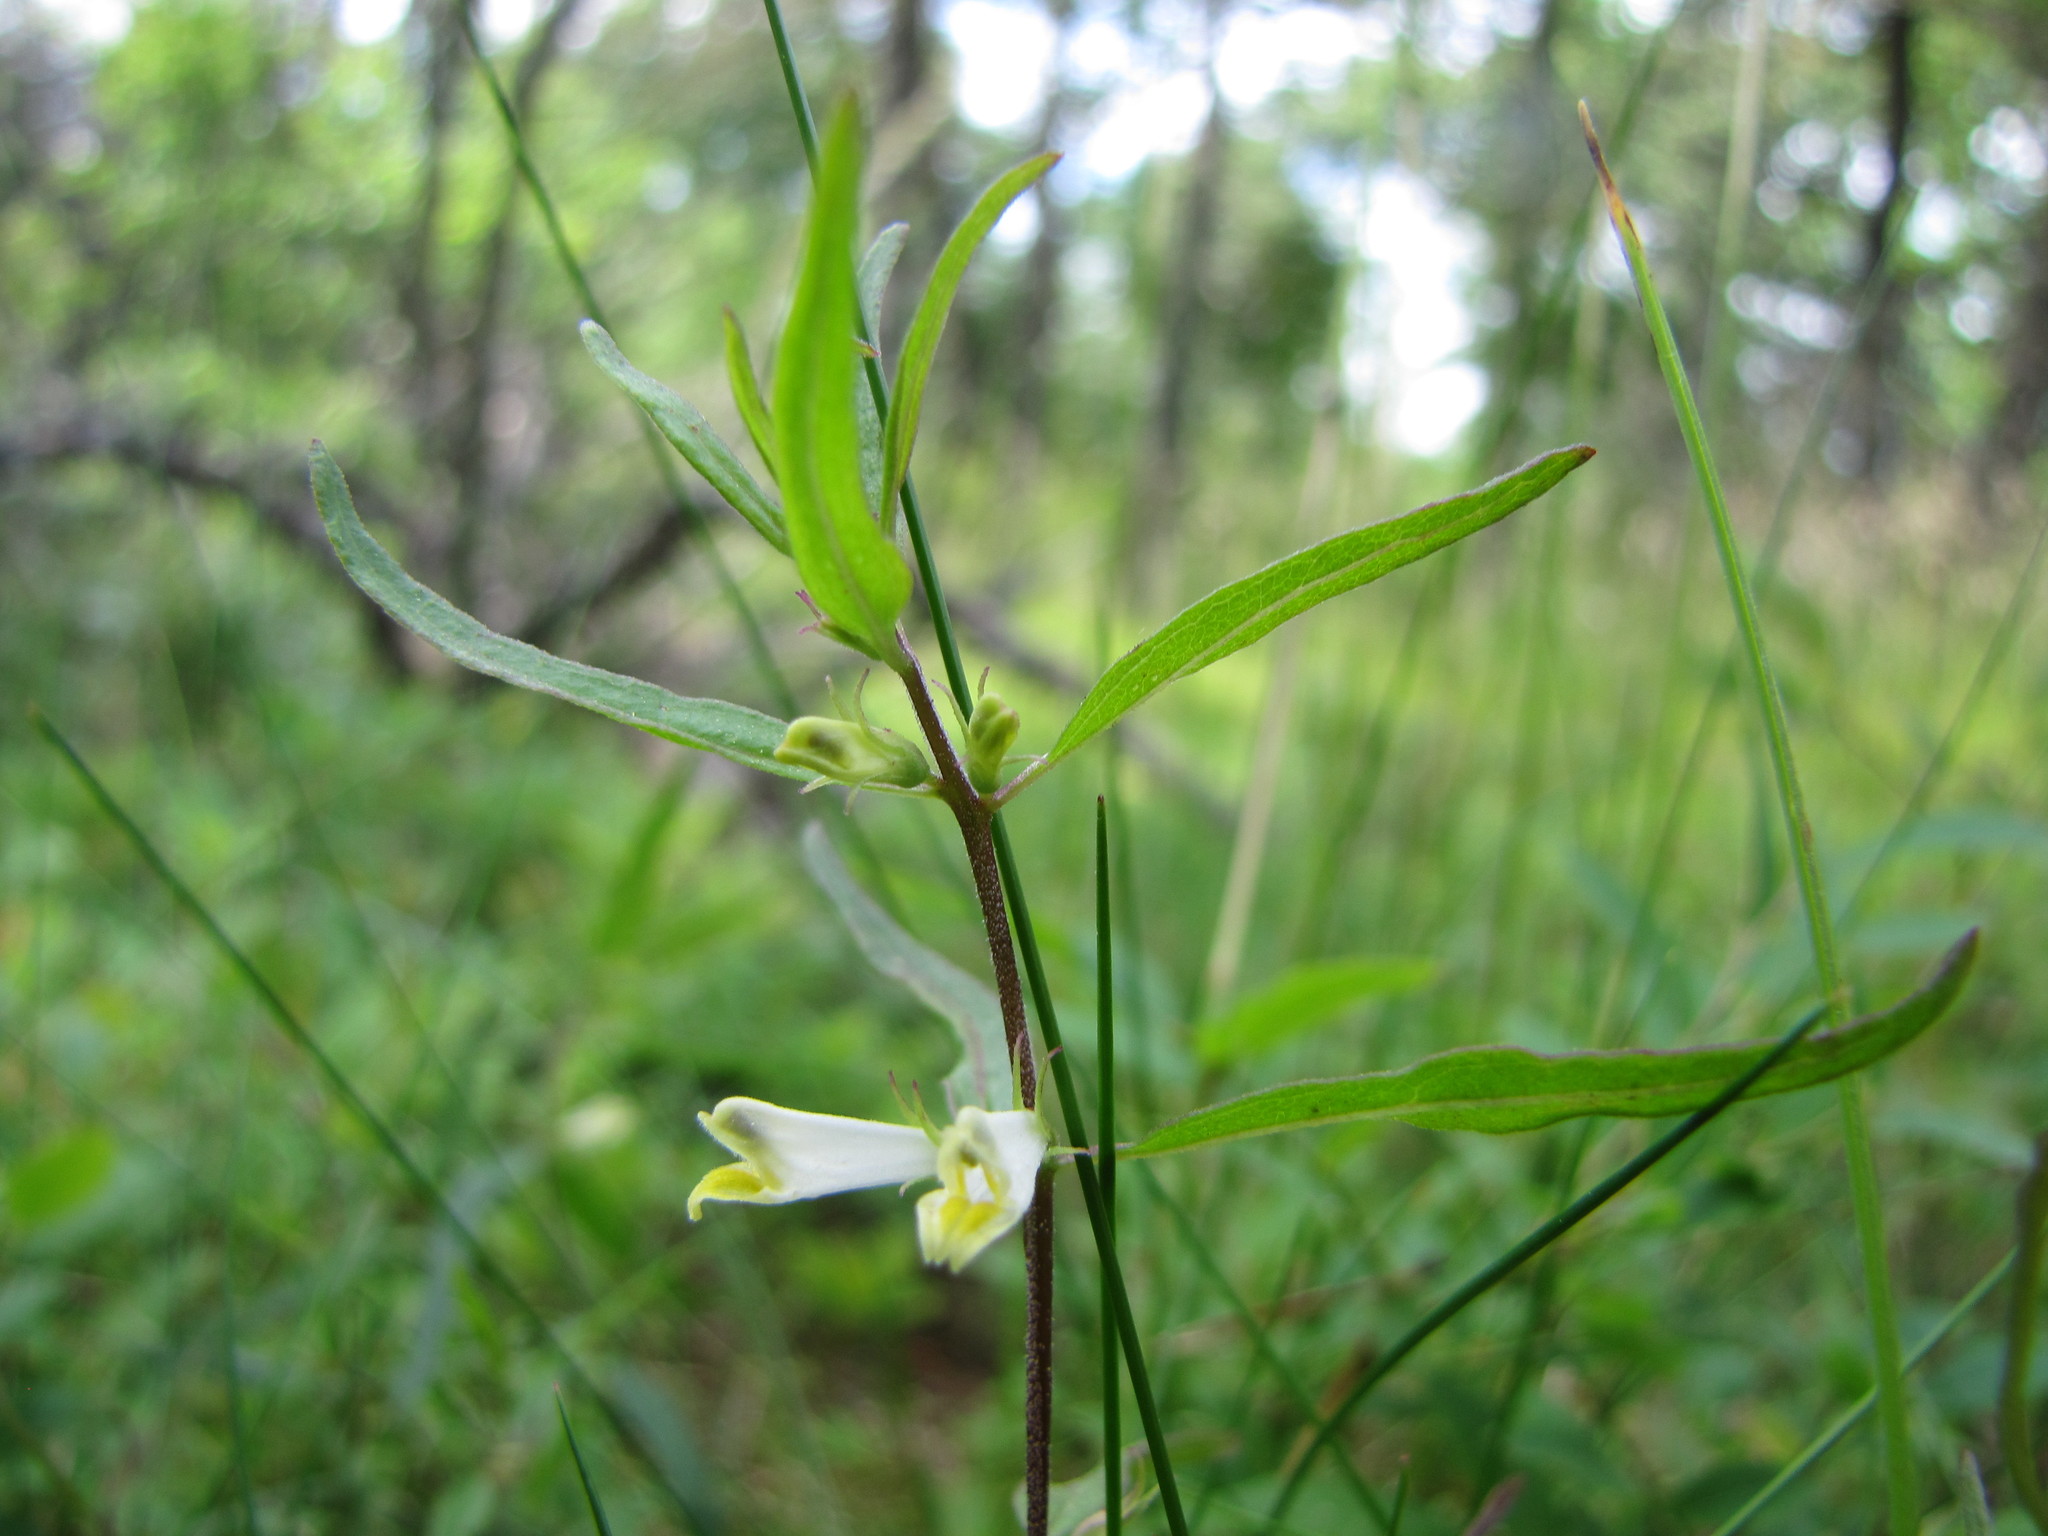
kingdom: Plantae
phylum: Tracheophyta
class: Magnoliopsida
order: Lamiales
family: Orobanchaceae
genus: Melampyrum
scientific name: Melampyrum lineare
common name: American cow-wheat
